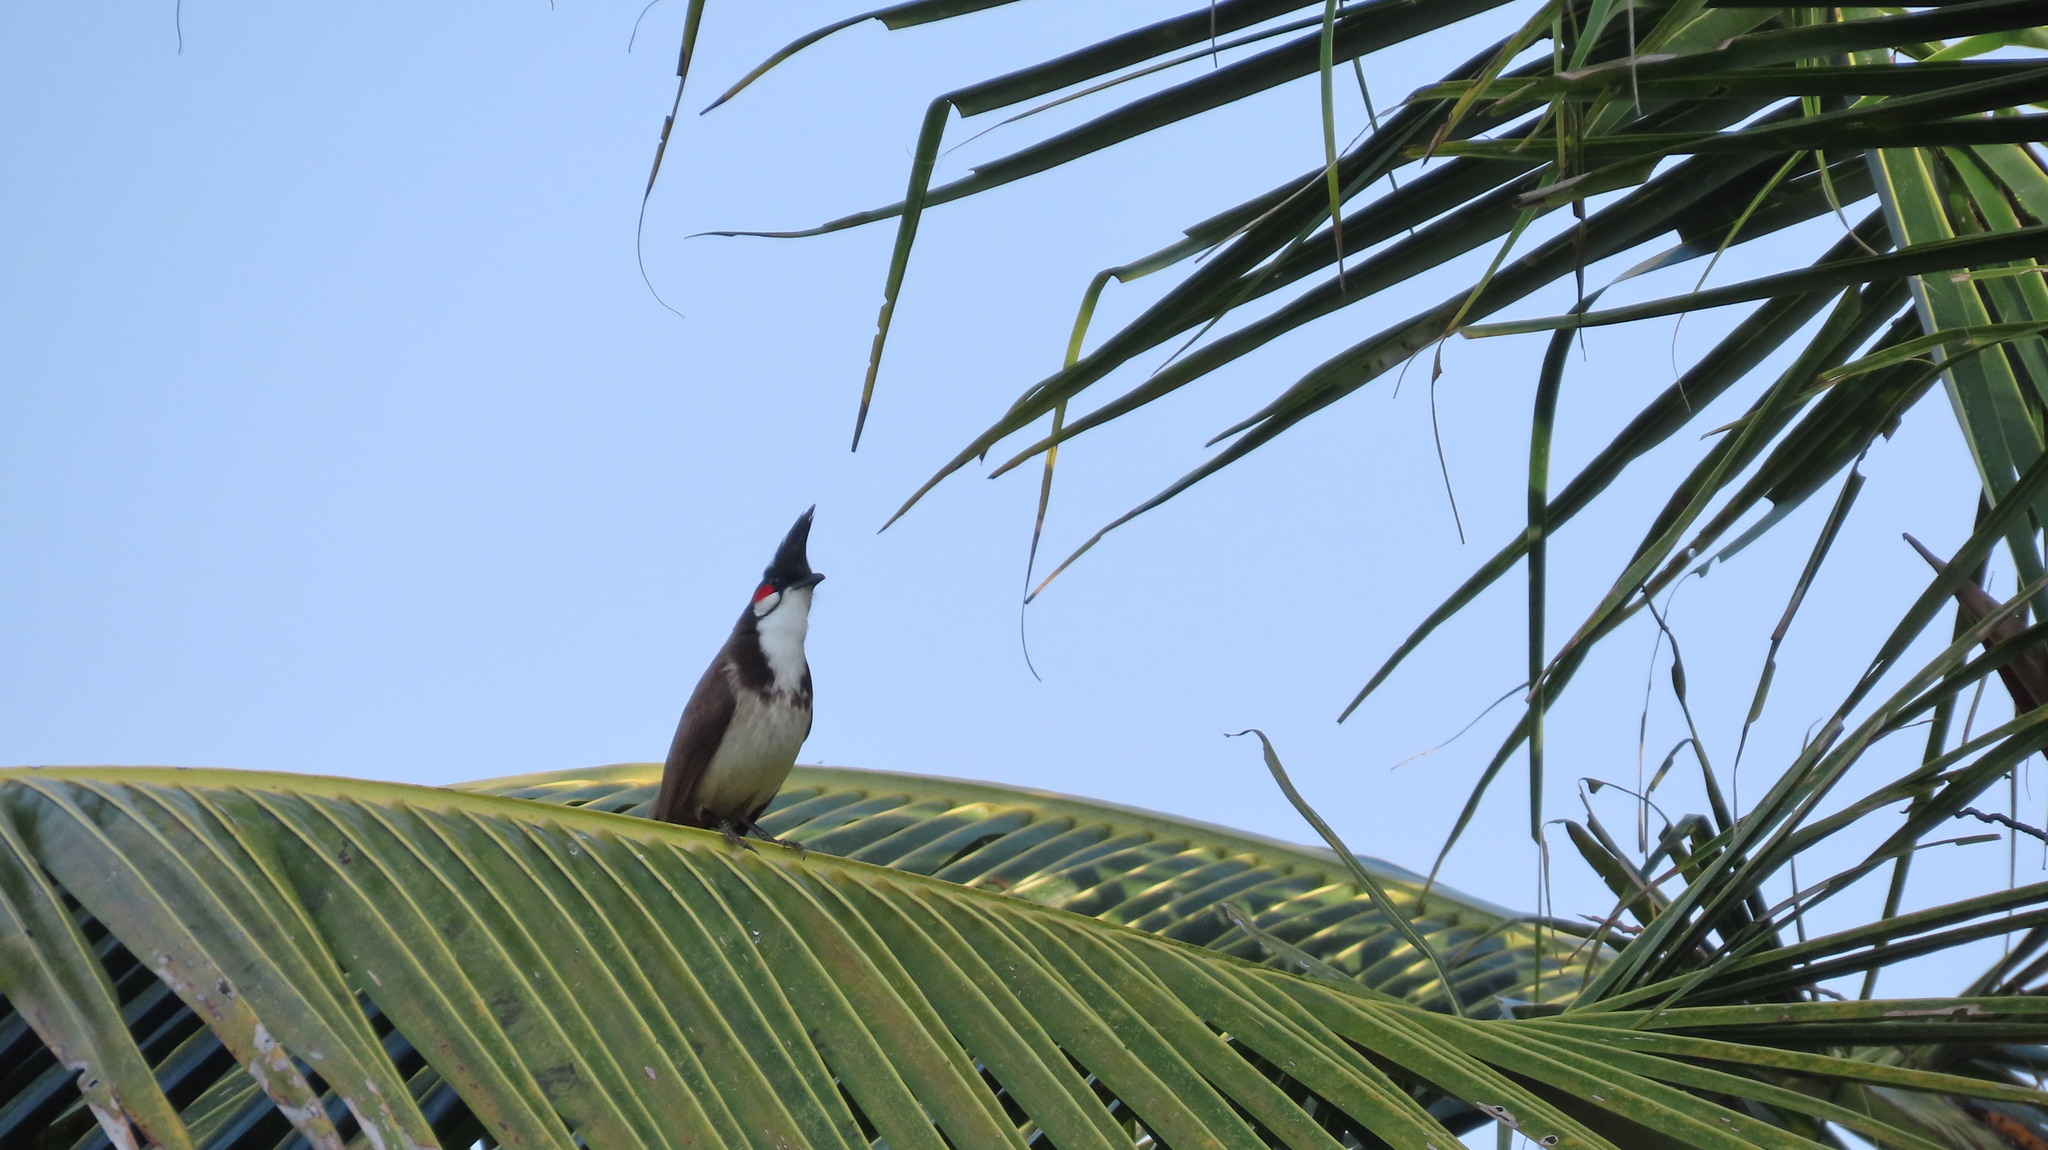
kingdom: Animalia
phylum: Chordata
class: Aves
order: Passeriformes
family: Pycnonotidae
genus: Pycnonotus
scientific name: Pycnonotus jocosus
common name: Red-whiskered bulbul
